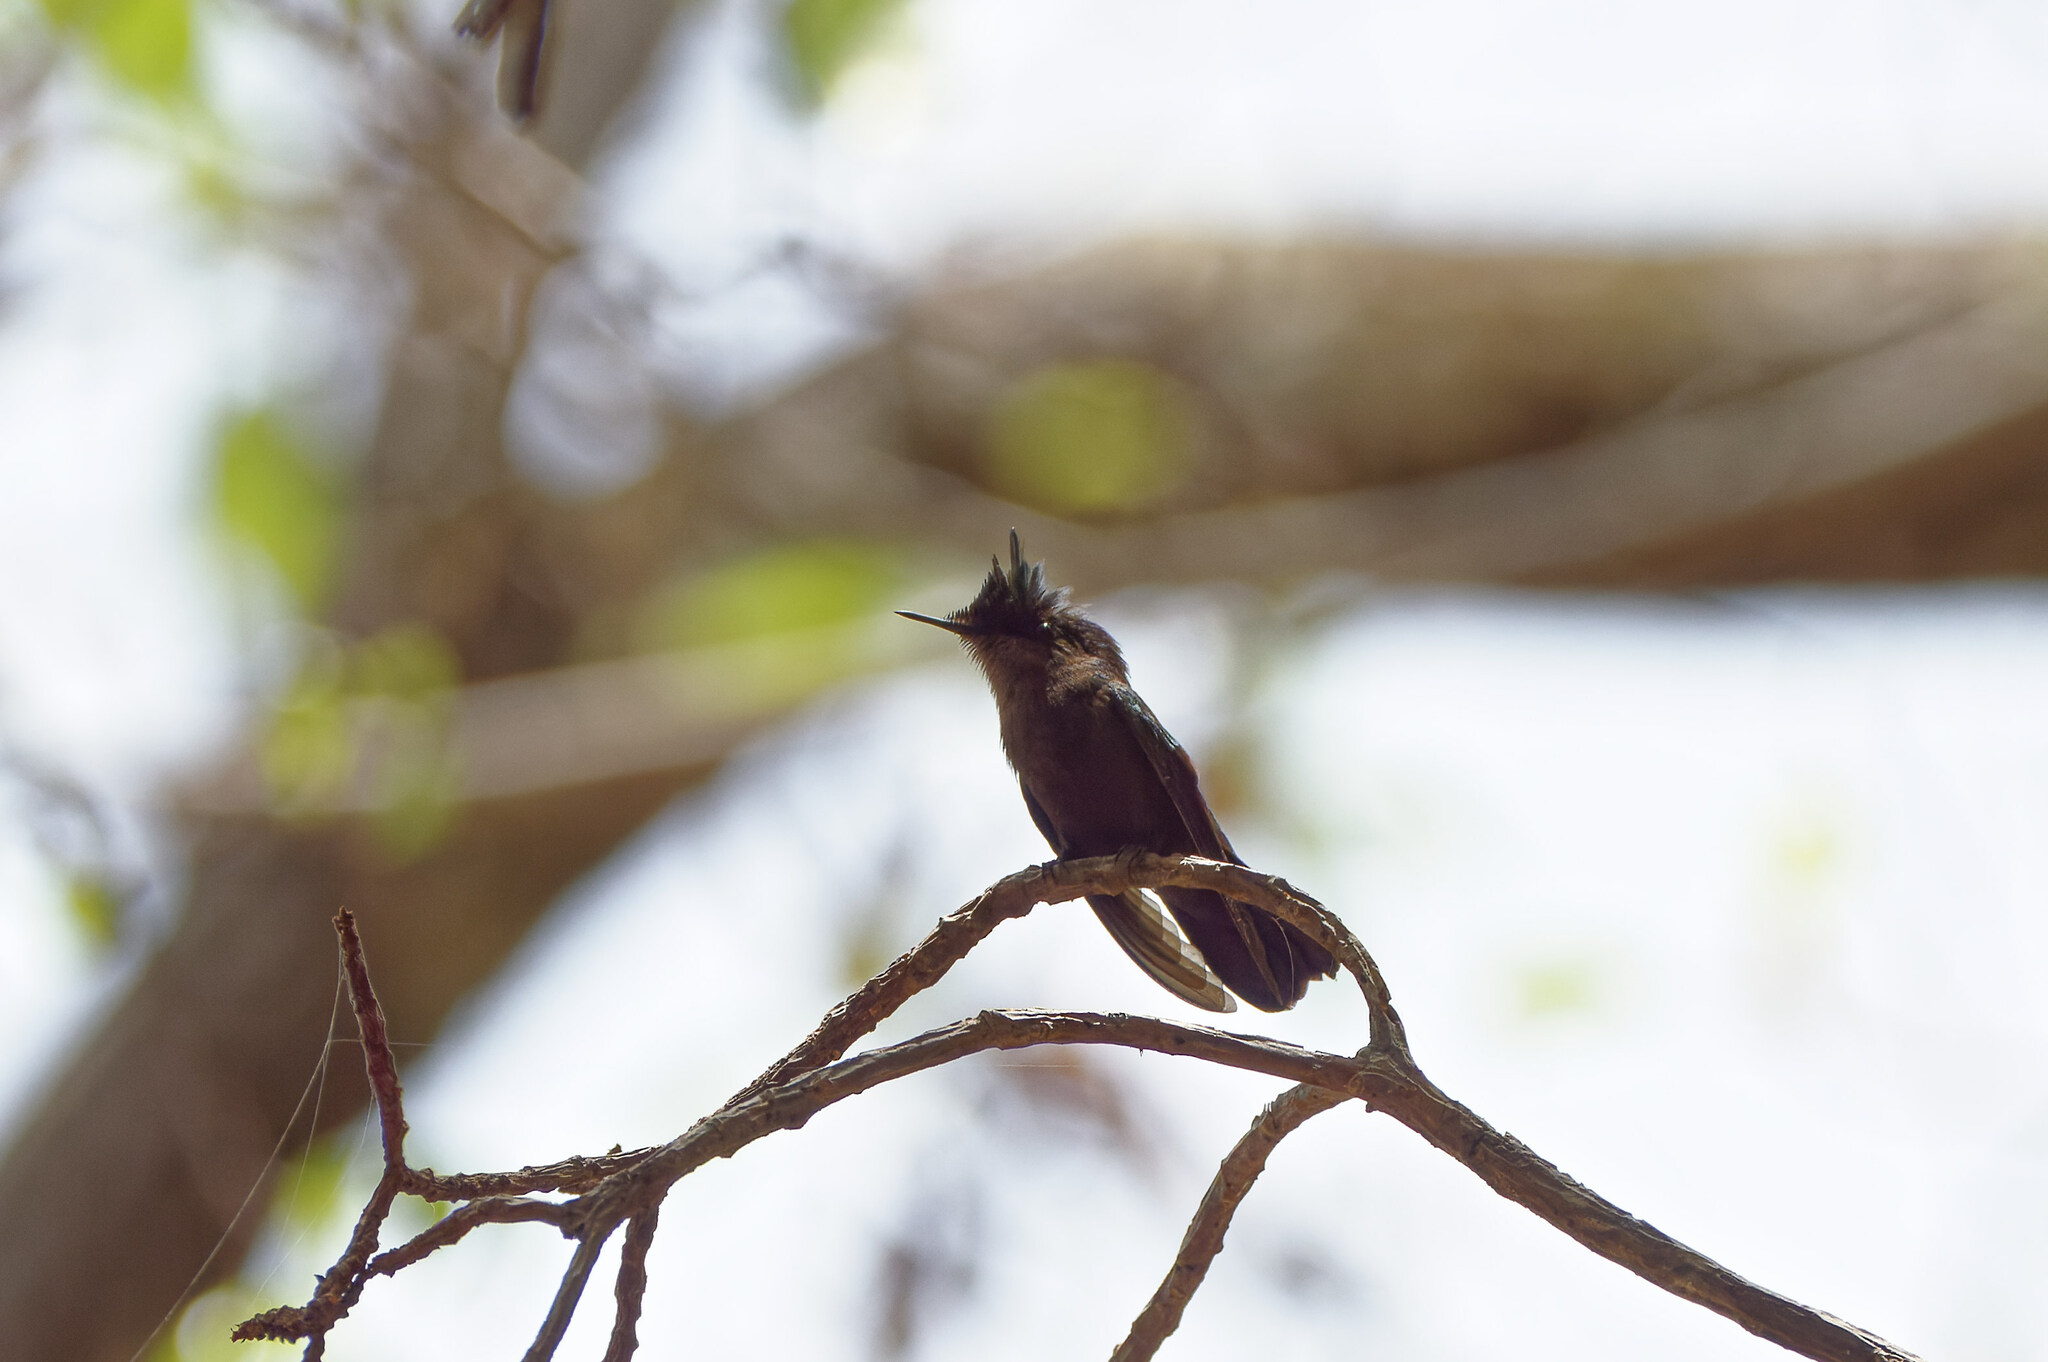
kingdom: Animalia
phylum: Chordata
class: Aves
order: Apodiformes
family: Trochilidae
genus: Orthorhyncus
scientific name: Orthorhyncus cristatus
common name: Antillean crested hummingbird
